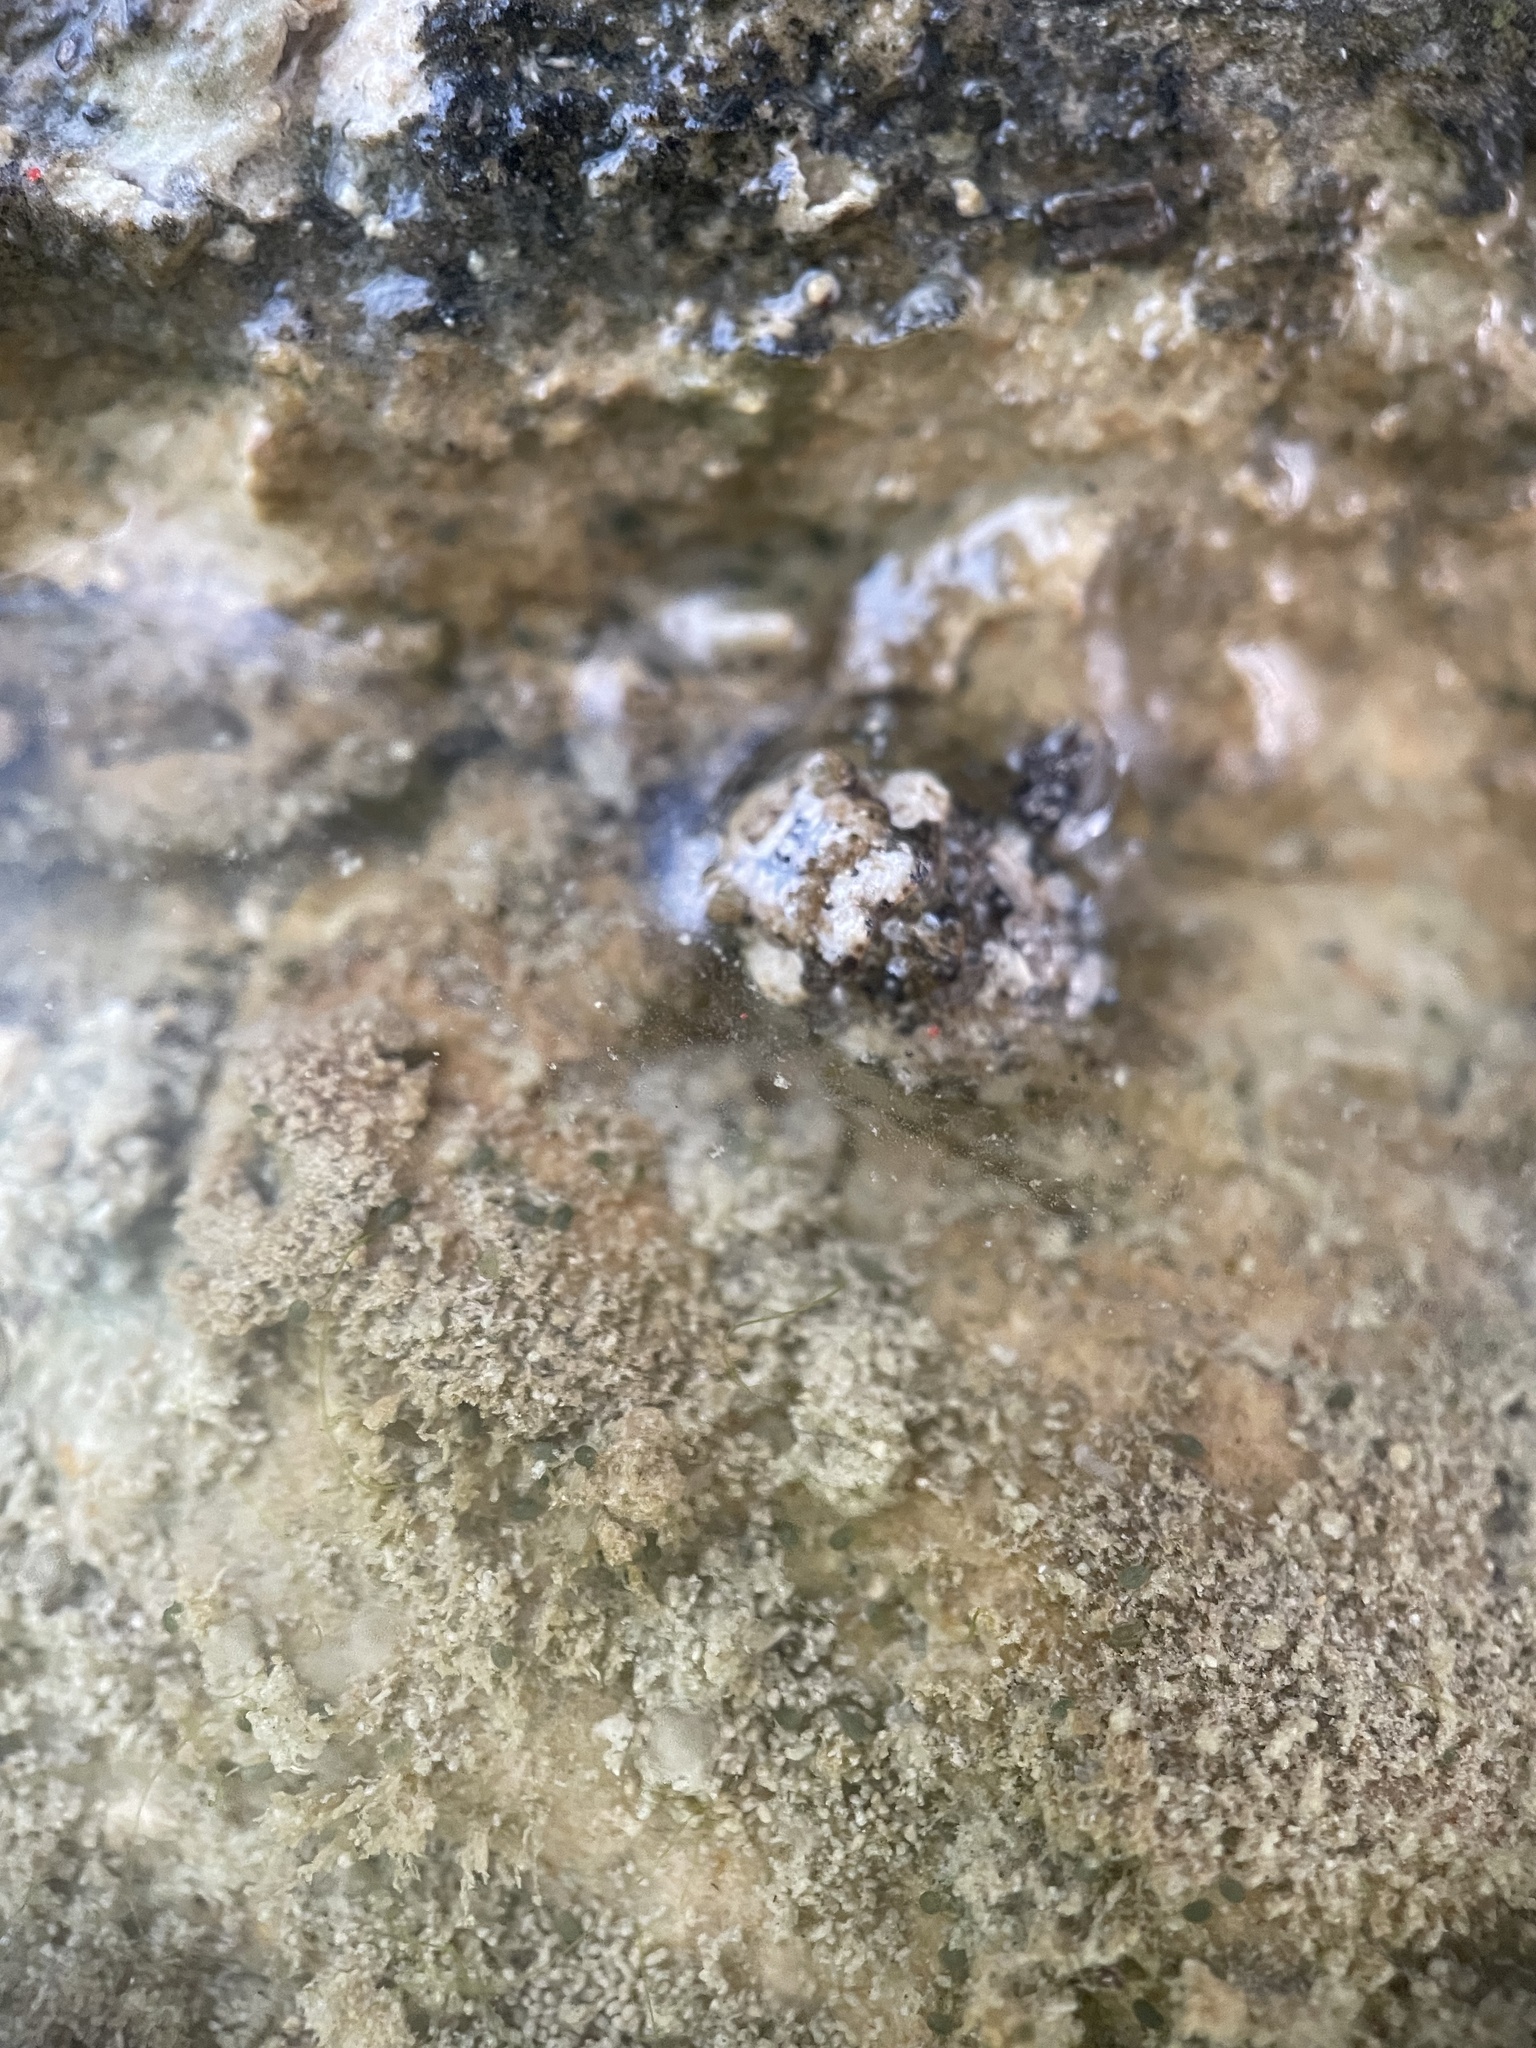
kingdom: Animalia
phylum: Arthropoda
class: Insecta
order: Hemiptera
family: Gelastocoridae
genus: Gelastocoris
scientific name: Gelastocoris rotundatus
